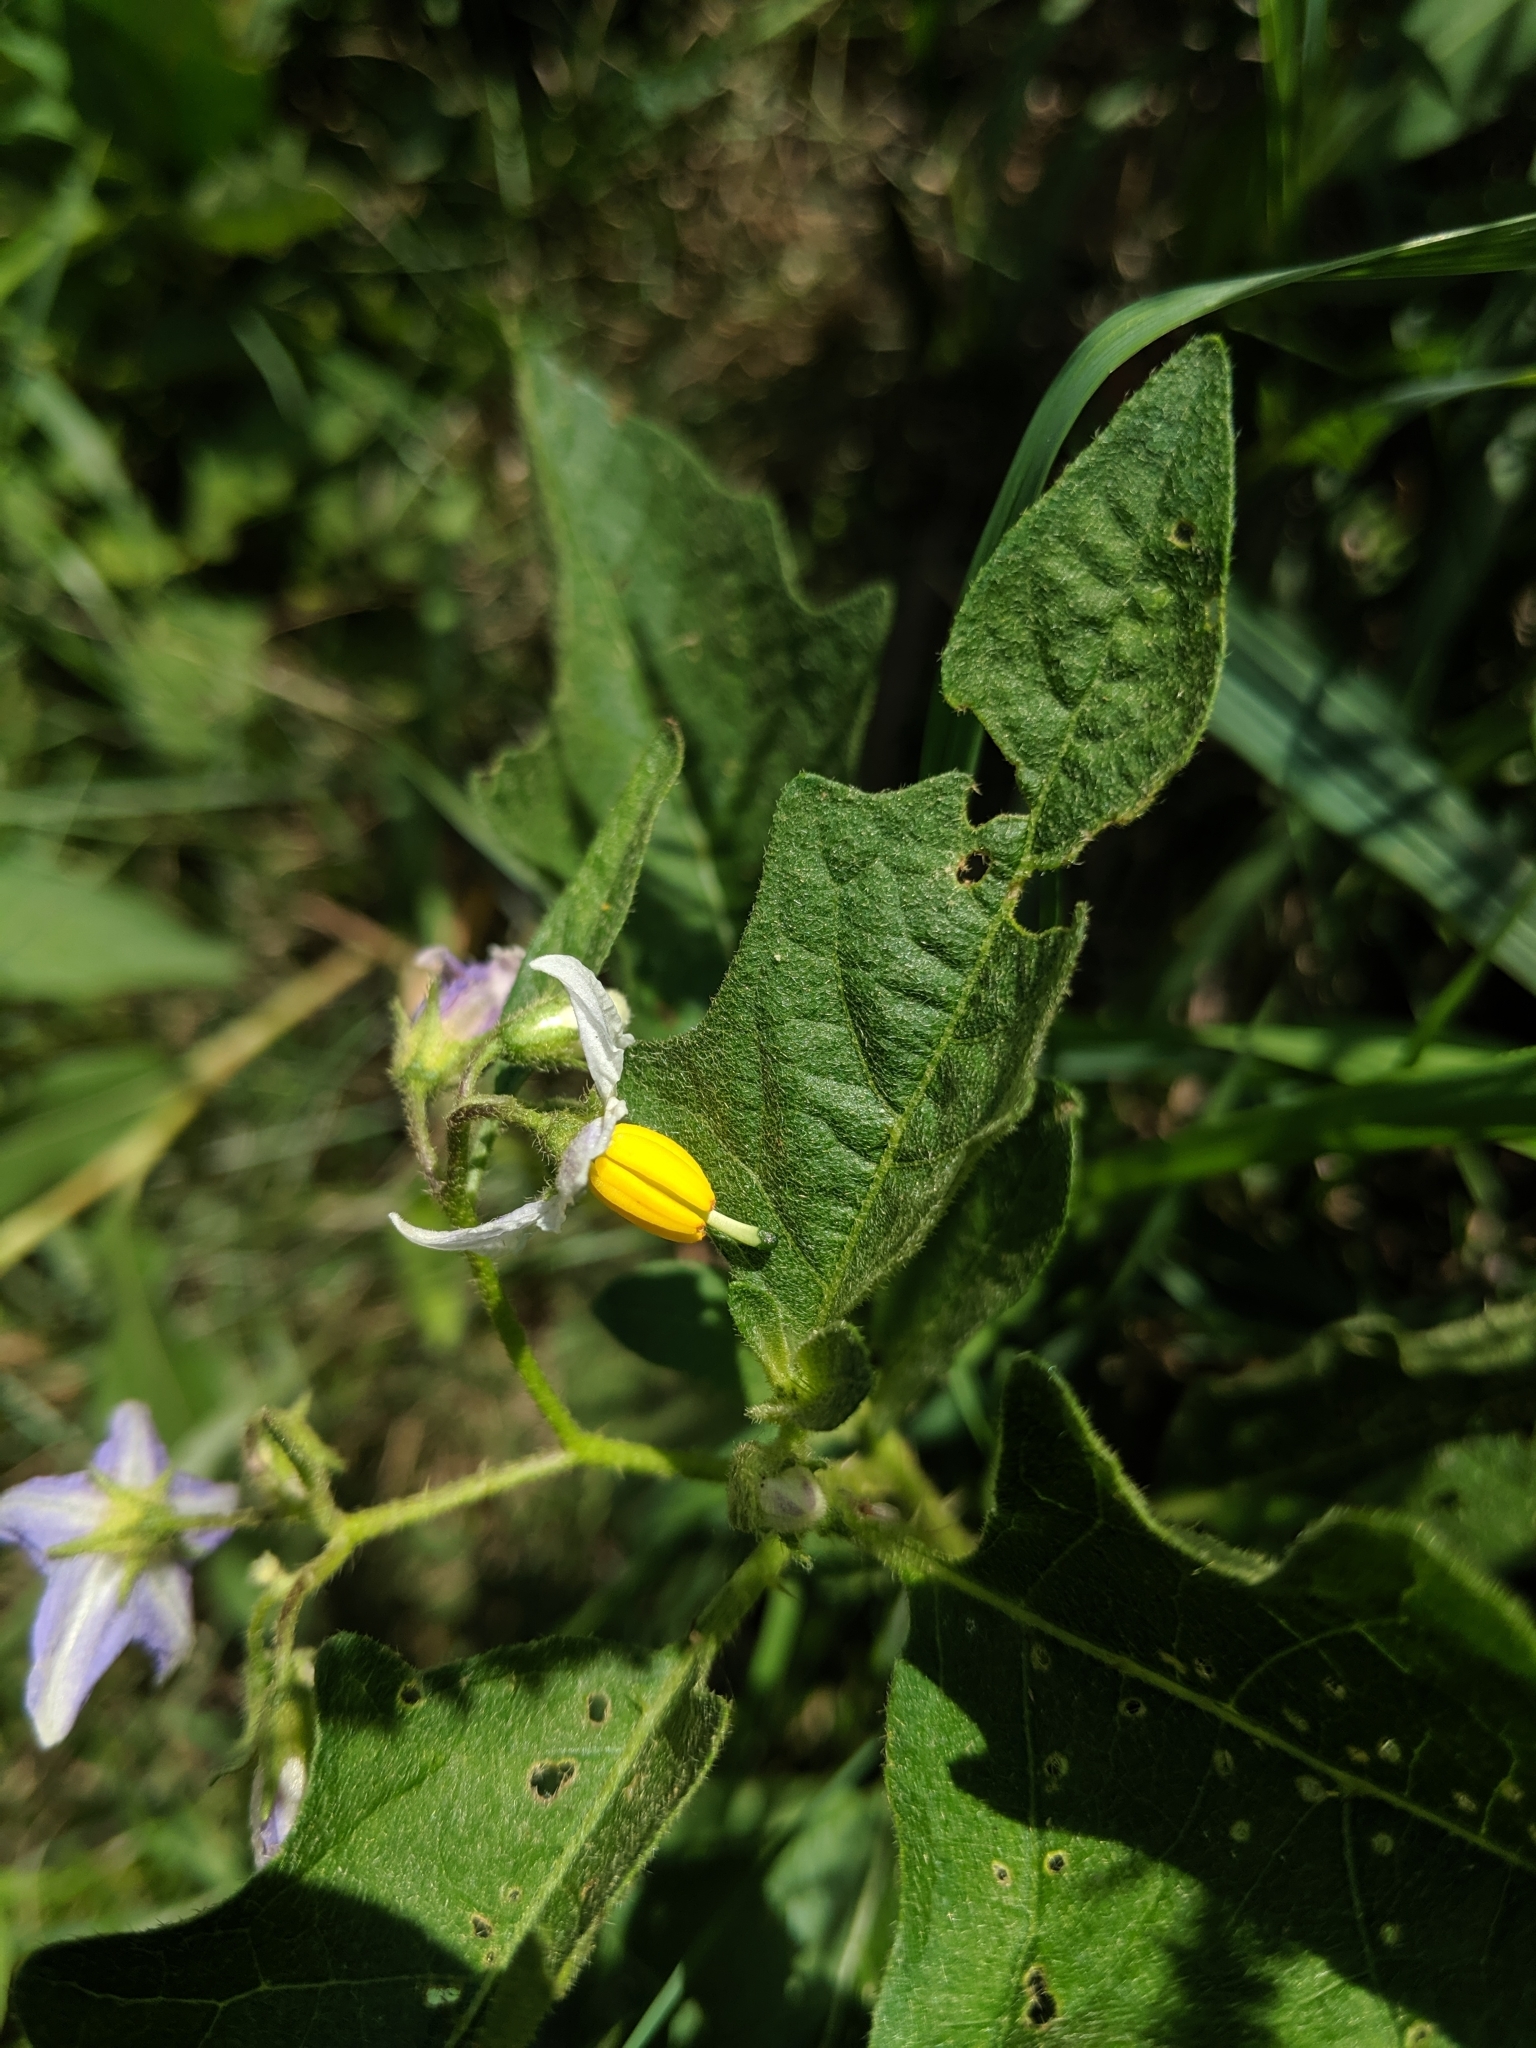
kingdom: Plantae
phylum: Tracheophyta
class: Magnoliopsida
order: Solanales
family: Solanaceae
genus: Solanum
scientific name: Solanum carolinense
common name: Horse-nettle
